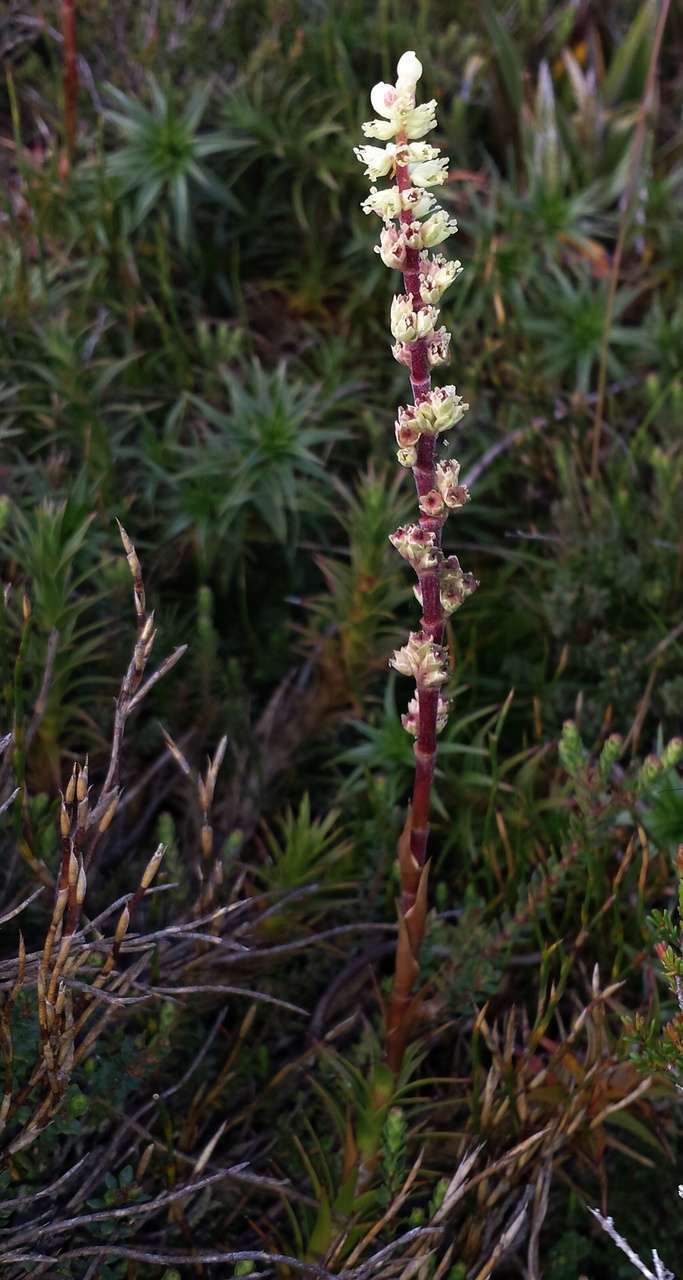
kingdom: Plantae
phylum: Tracheophyta
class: Magnoliopsida
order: Ericales
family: Ericaceae
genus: Dracophyllum
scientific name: Dracophyllum continentis
